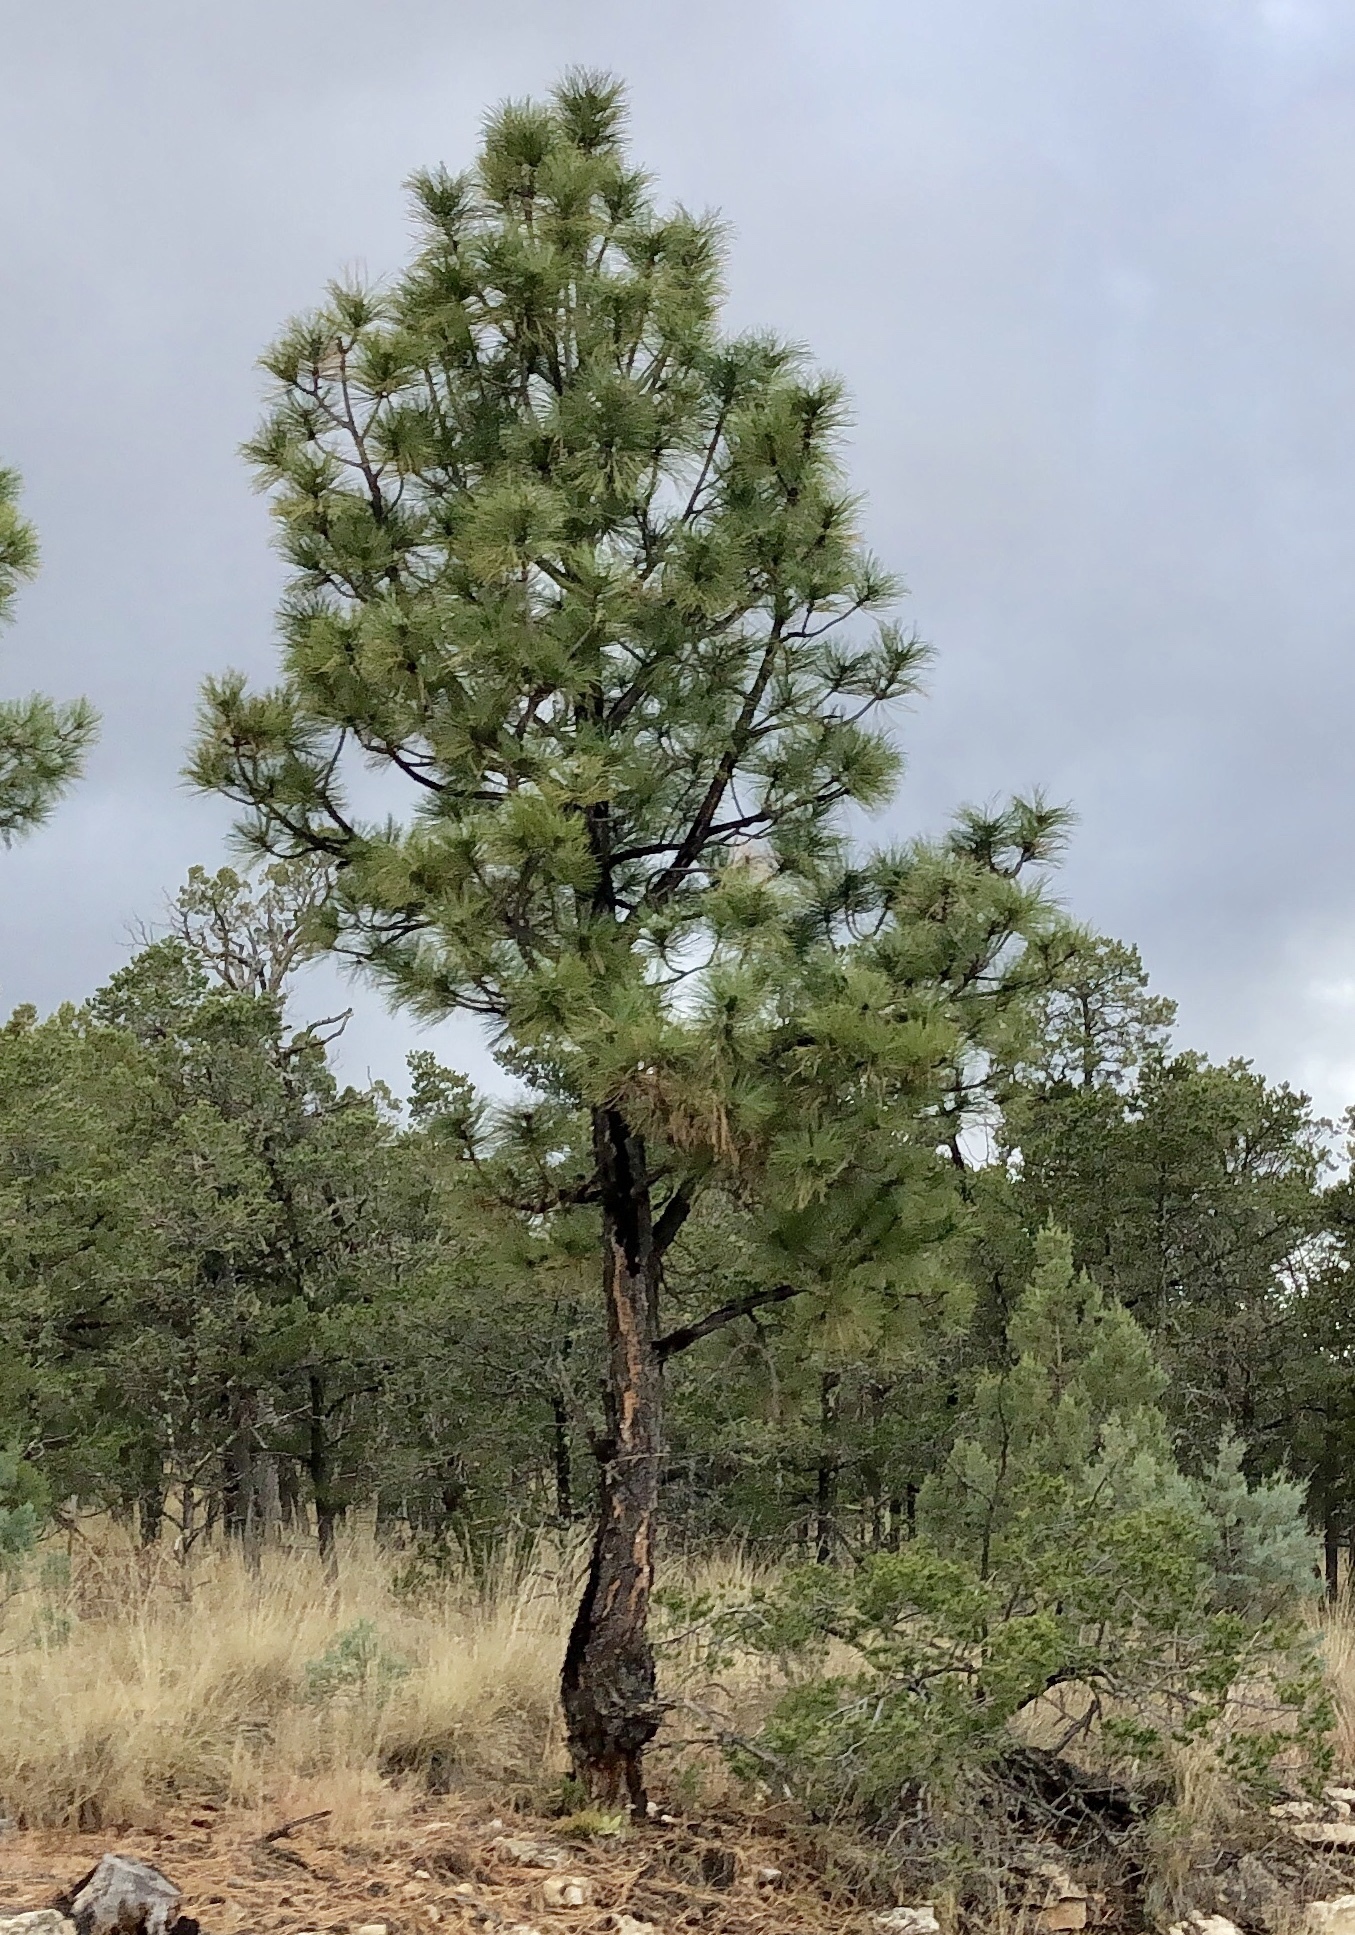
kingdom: Plantae
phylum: Tracheophyta
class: Pinopsida
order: Pinales
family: Pinaceae
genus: Pinus
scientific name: Pinus ponderosa
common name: Western yellow-pine
